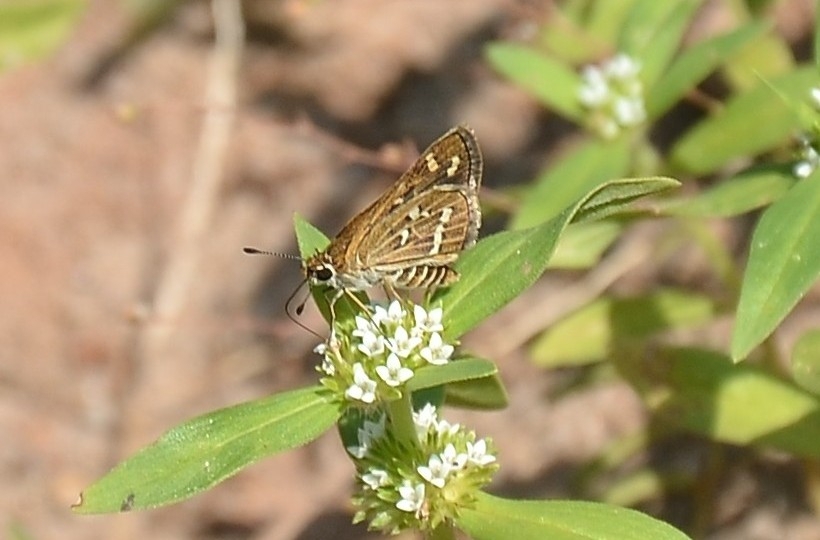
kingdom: Animalia
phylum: Arthropoda
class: Insecta
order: Lepidoptera
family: Hesperiidae
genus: Taractrocera
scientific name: Taractrocera maevius
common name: Common grass-dart
